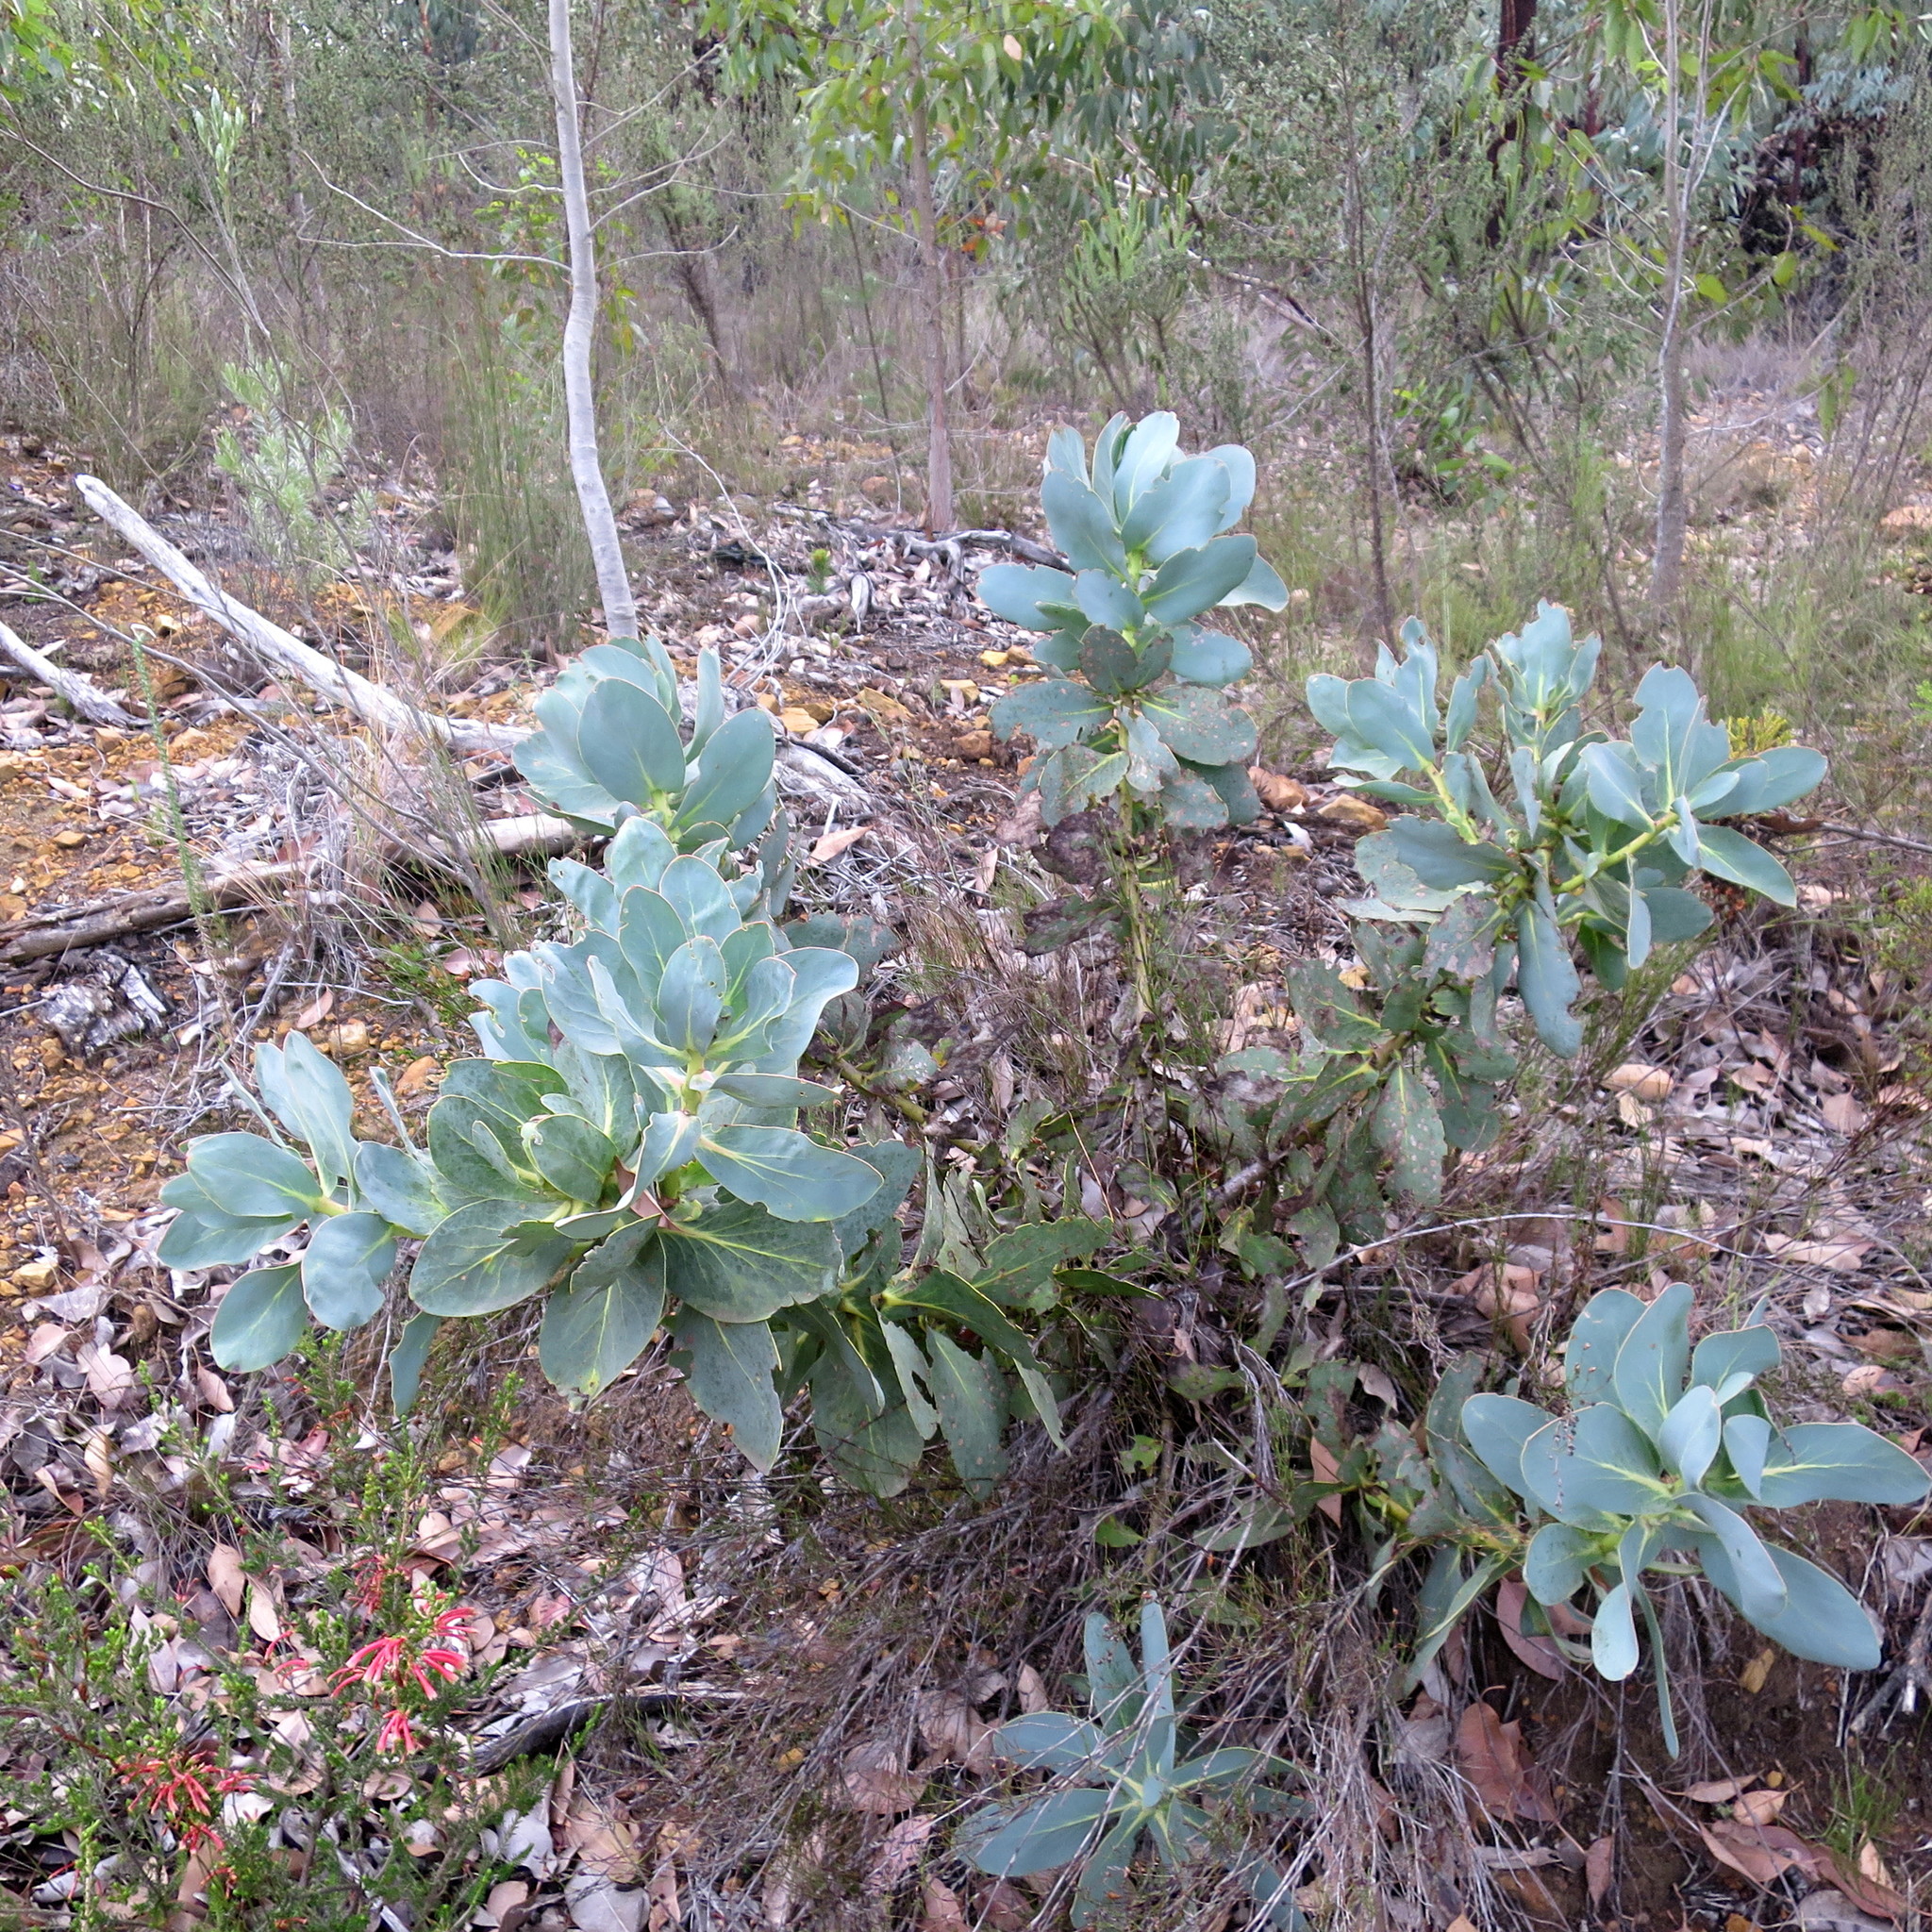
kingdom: Plantae
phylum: Tracheophyta
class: Magnoliopsida
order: Proteales
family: Proteaceae
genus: Protea
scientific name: Protea grandiceps
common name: Red sugarbush
